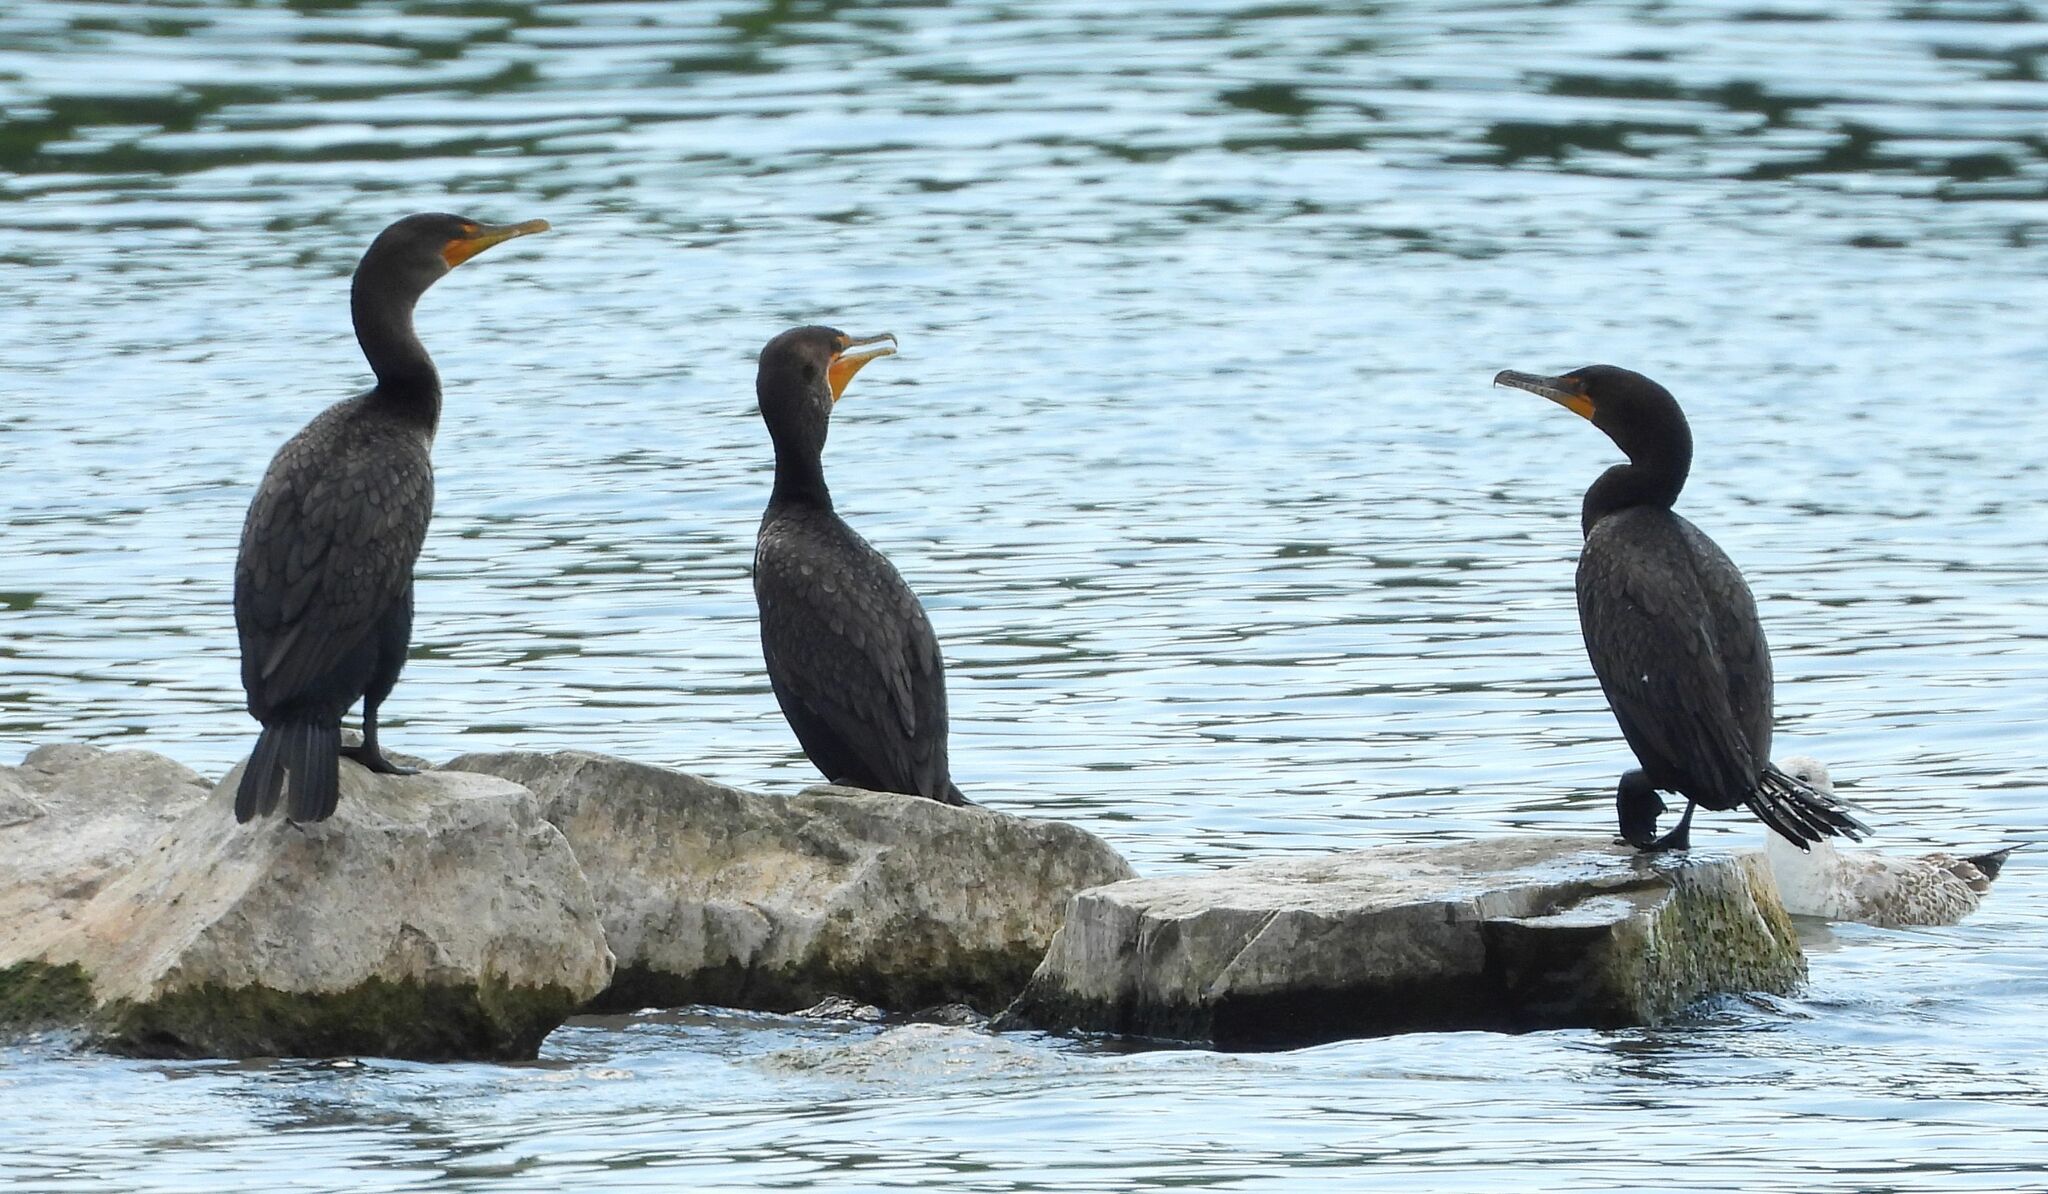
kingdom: Animalia
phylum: Chordata
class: Aves
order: Suliformes
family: Phalacrocoracidae
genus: Phalacrocorax
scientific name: Phalacrocorax auritus
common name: Double-crested cormorant
